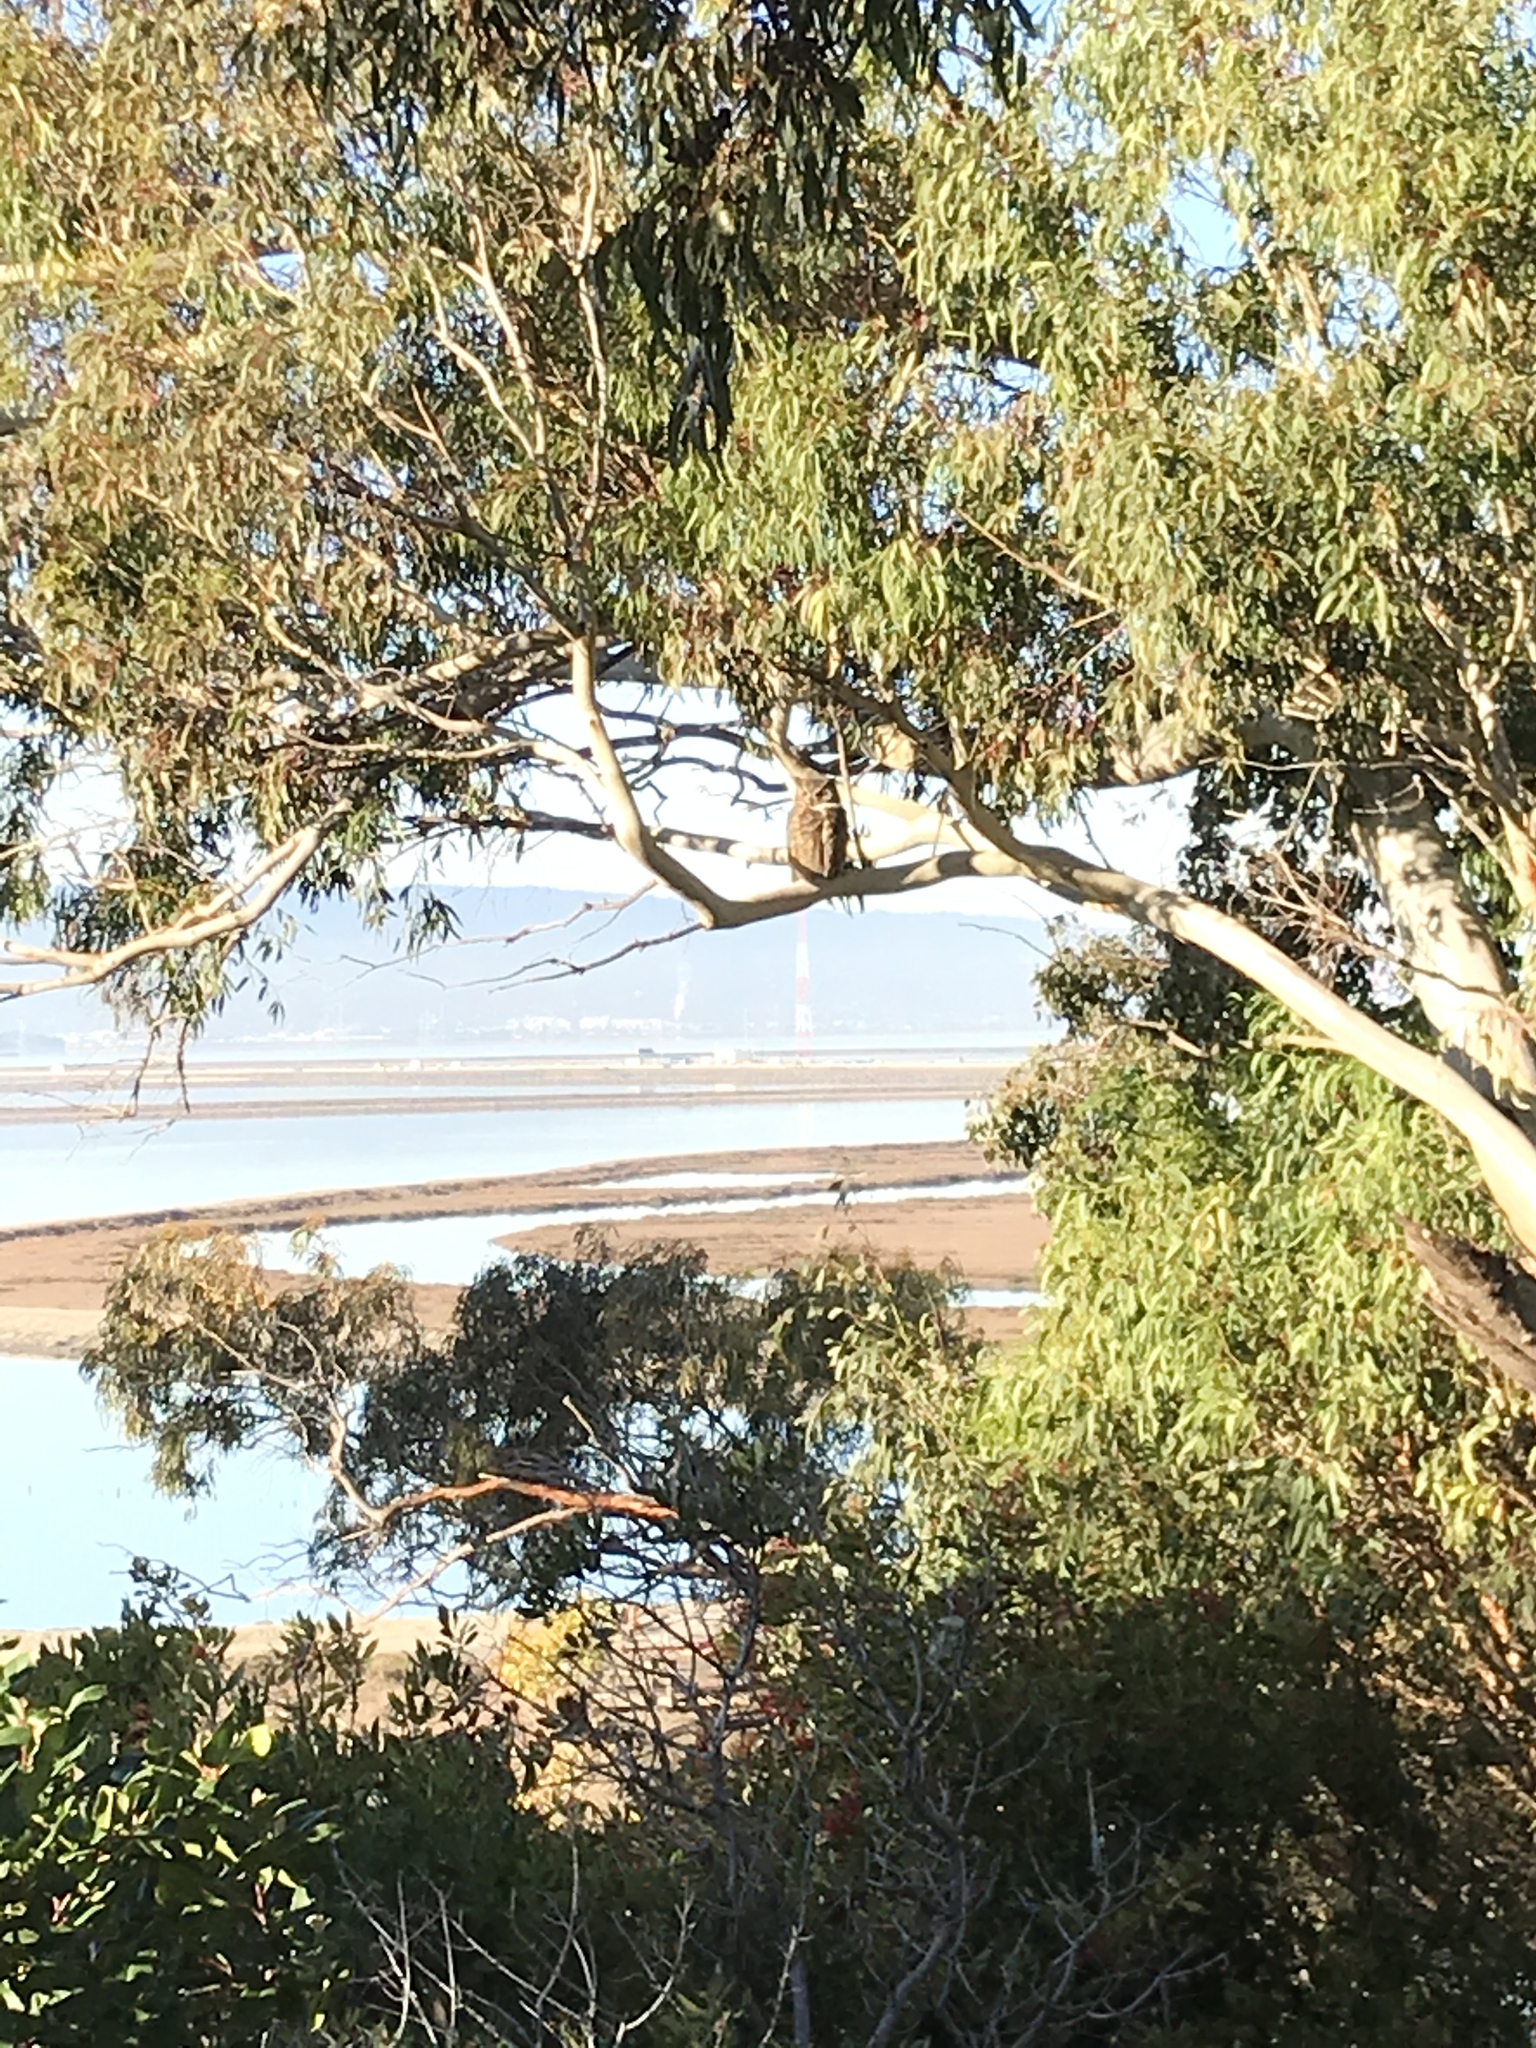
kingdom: Animalia
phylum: Chordata
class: Aves
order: Strigiformes
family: Strigidae
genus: Bubo
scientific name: Bubo virginianus
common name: Great horned owl
